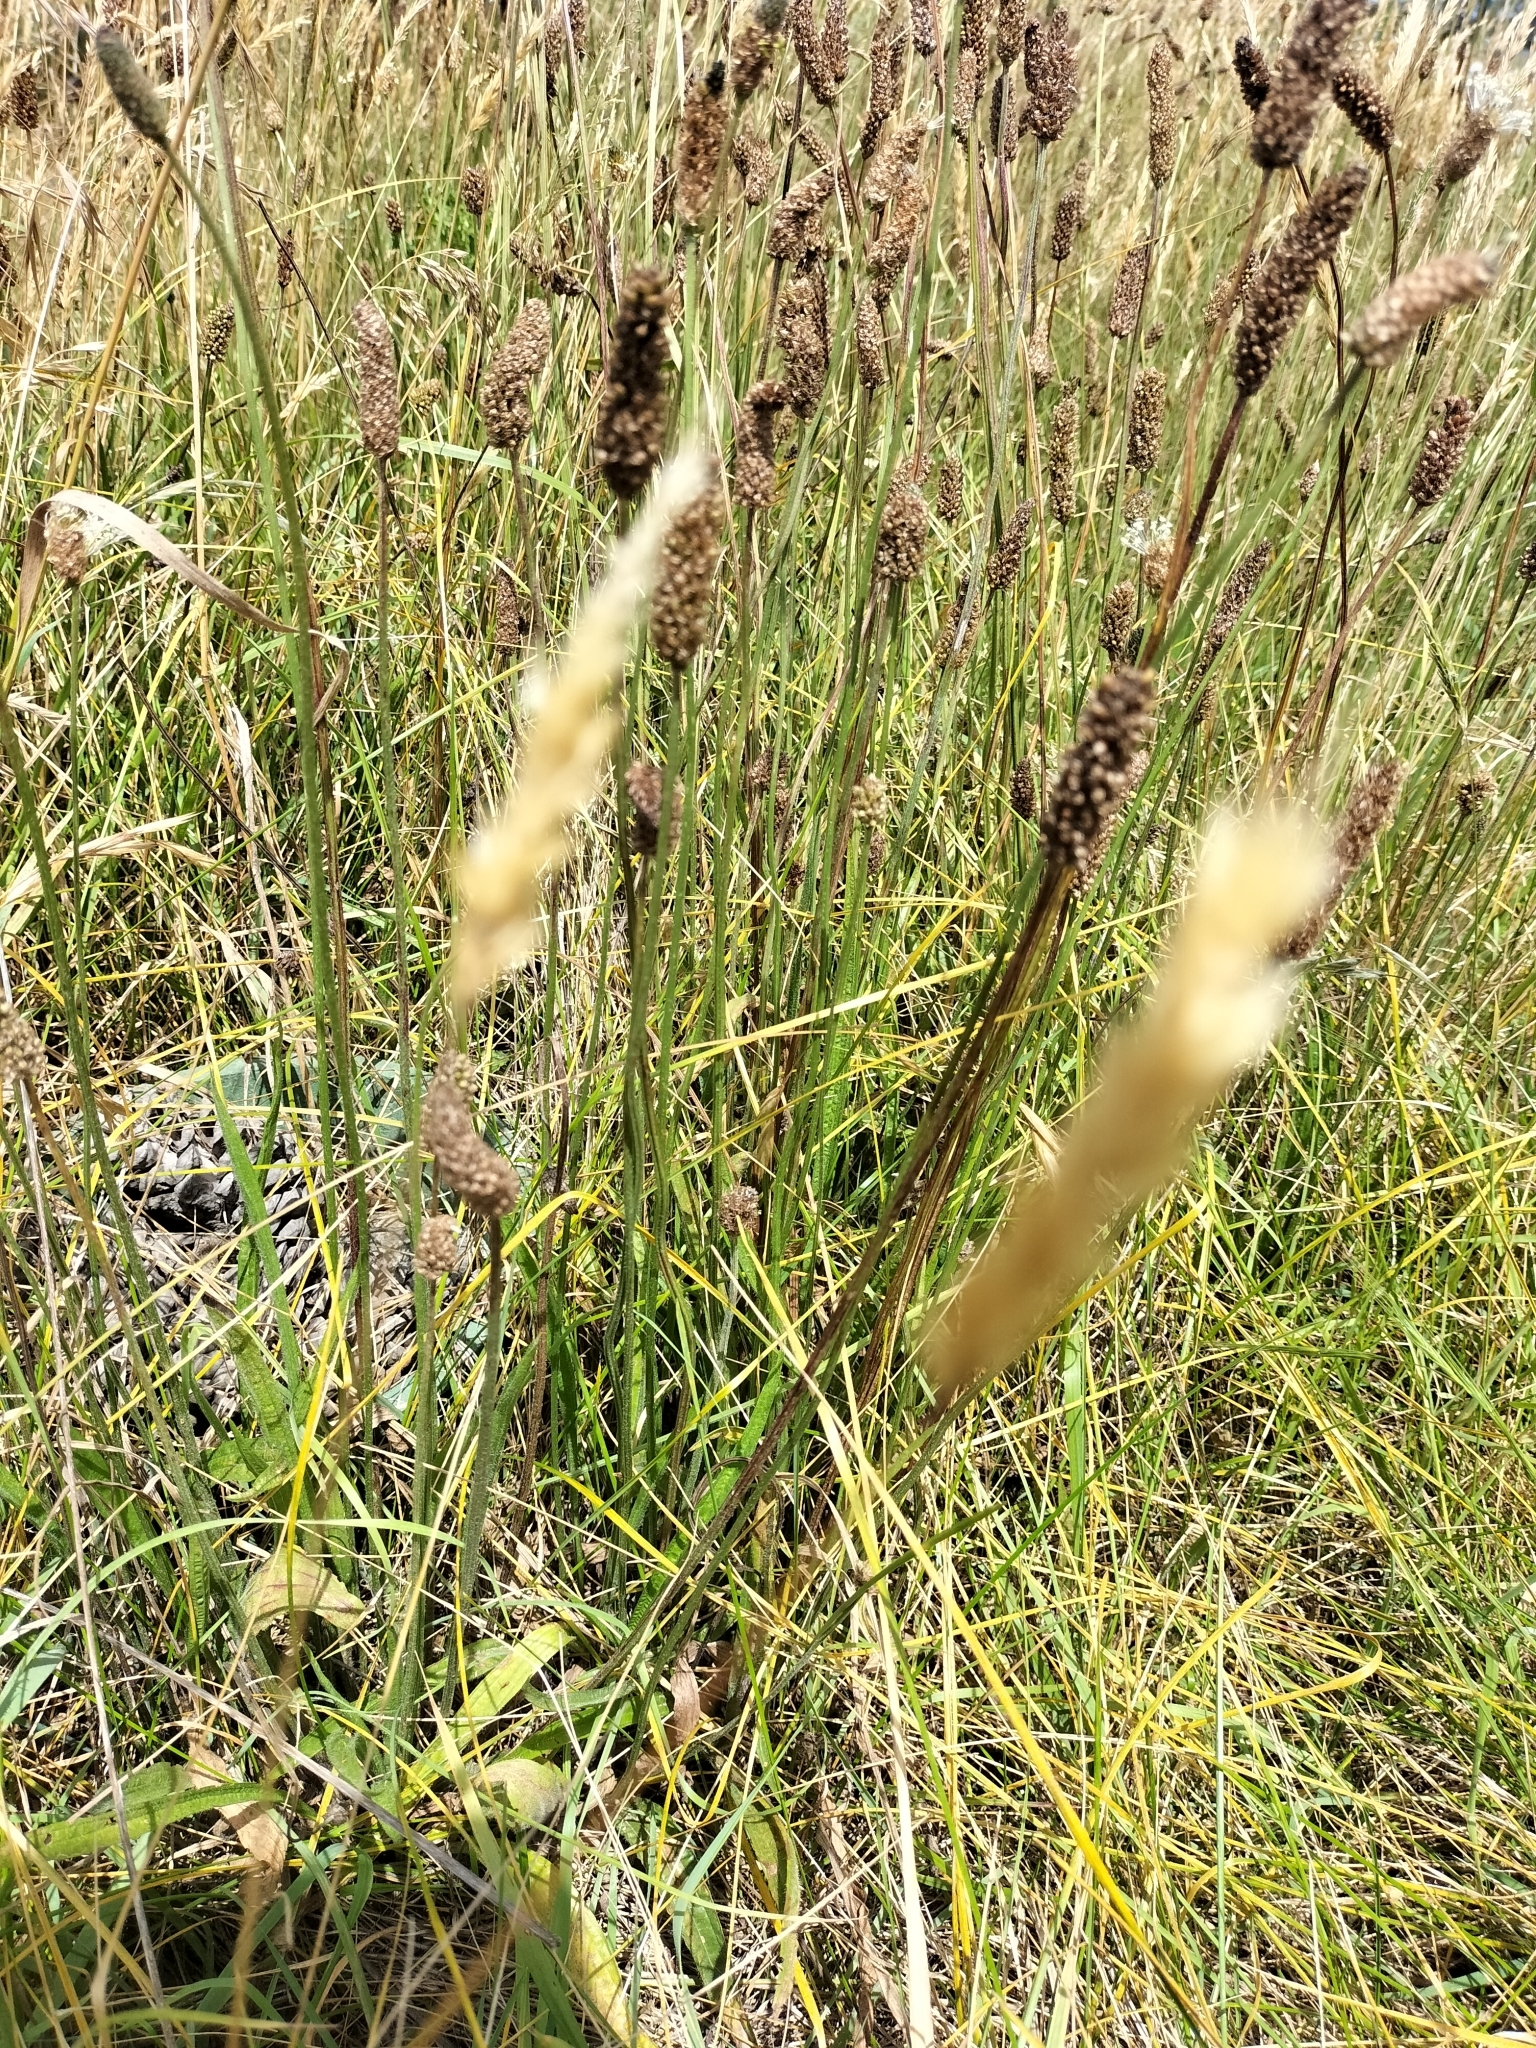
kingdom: Plantae
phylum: Tracheophyta
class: Magnoliopsida
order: Lamiales
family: Plantaginaceae
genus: Plantago
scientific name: Plantago lanceolata
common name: Ribwort plantain
